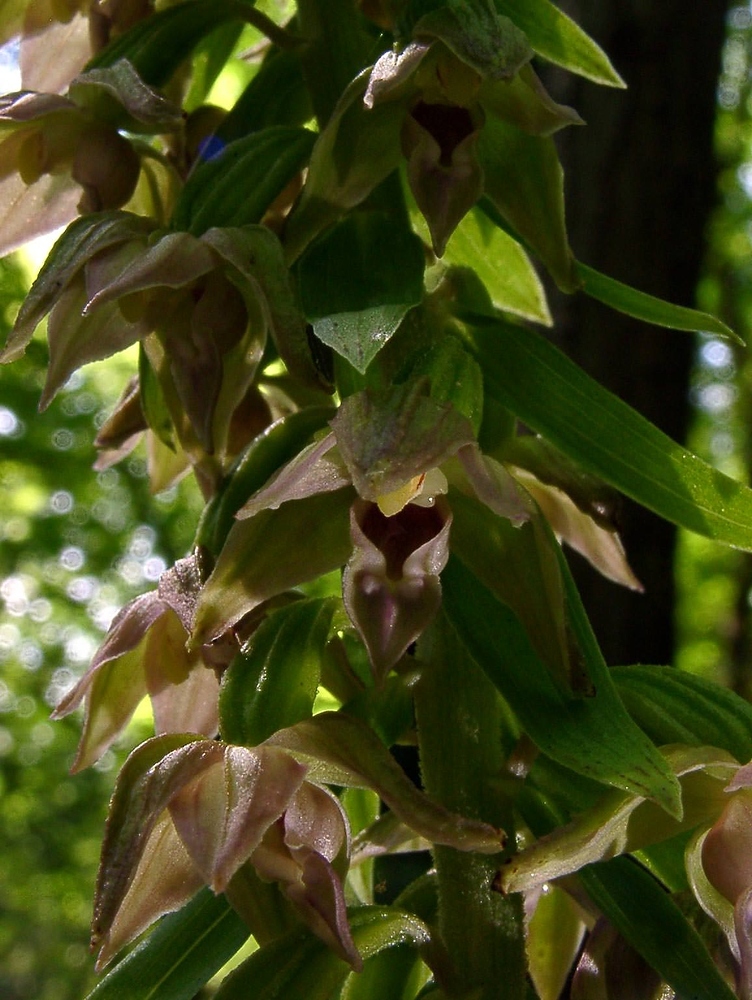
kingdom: Plantae
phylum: Tracheophyta
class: Liliopsida
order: Asparagales
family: Orchidaceae
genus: Epipactis
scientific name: Epipactis leptochila
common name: Narrow-lipped helleborine
